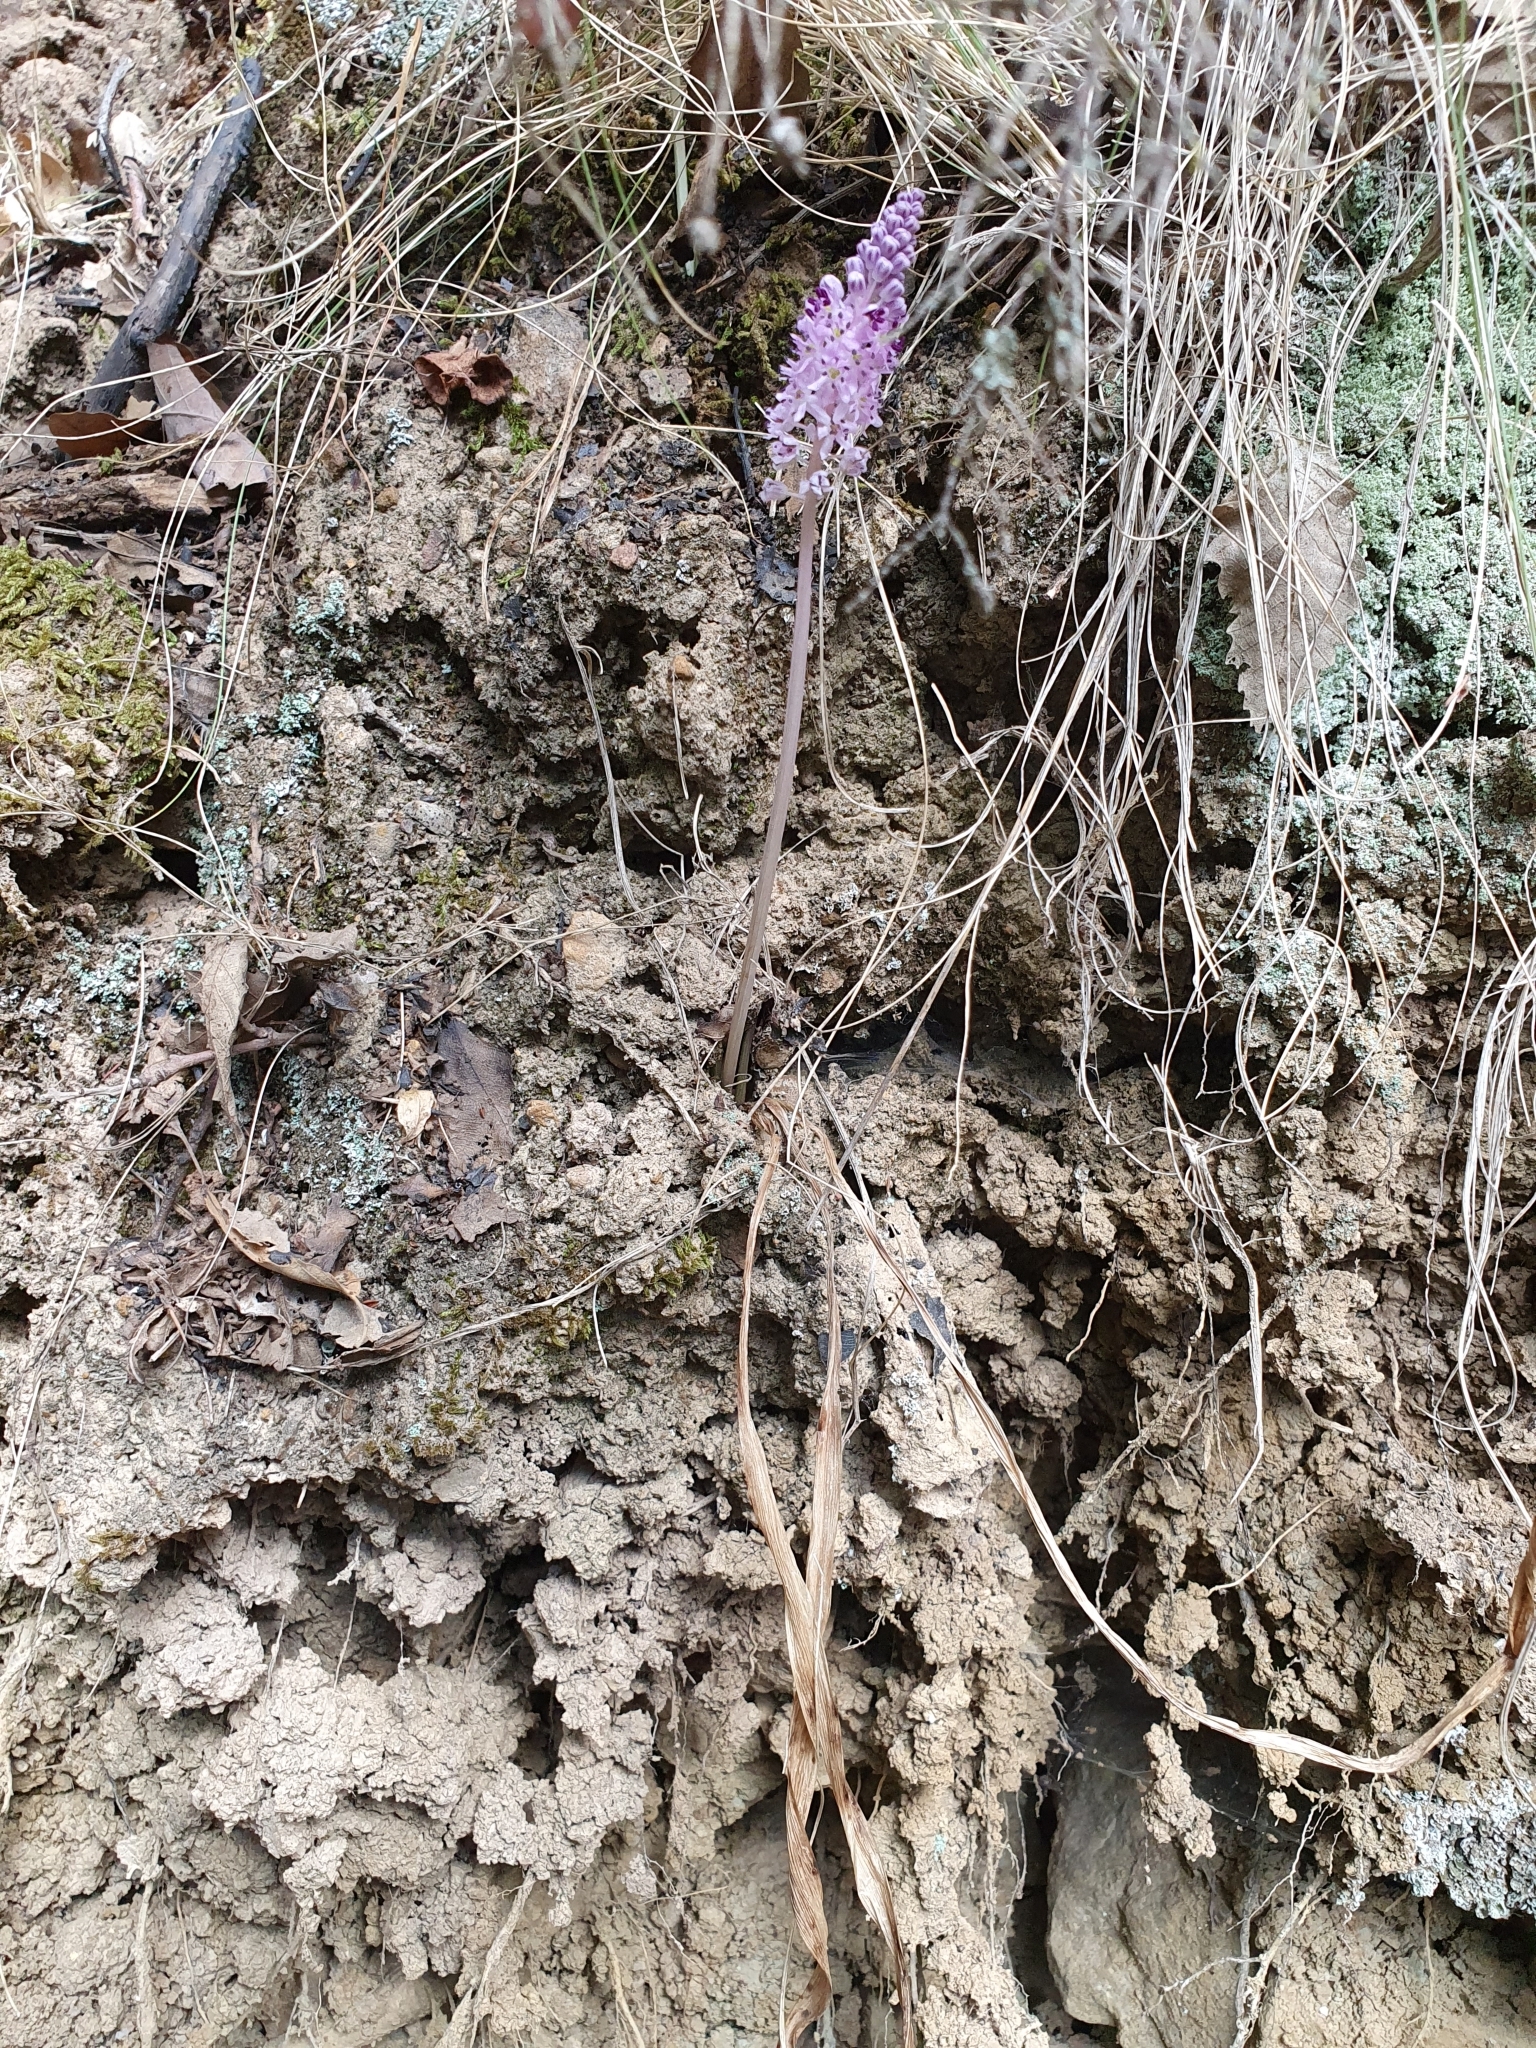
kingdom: Plantae
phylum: Tracheophyta
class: Liliopsida
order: Asparagales
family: Asparagaceae
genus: Barnardia
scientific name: Barnardia numidica
